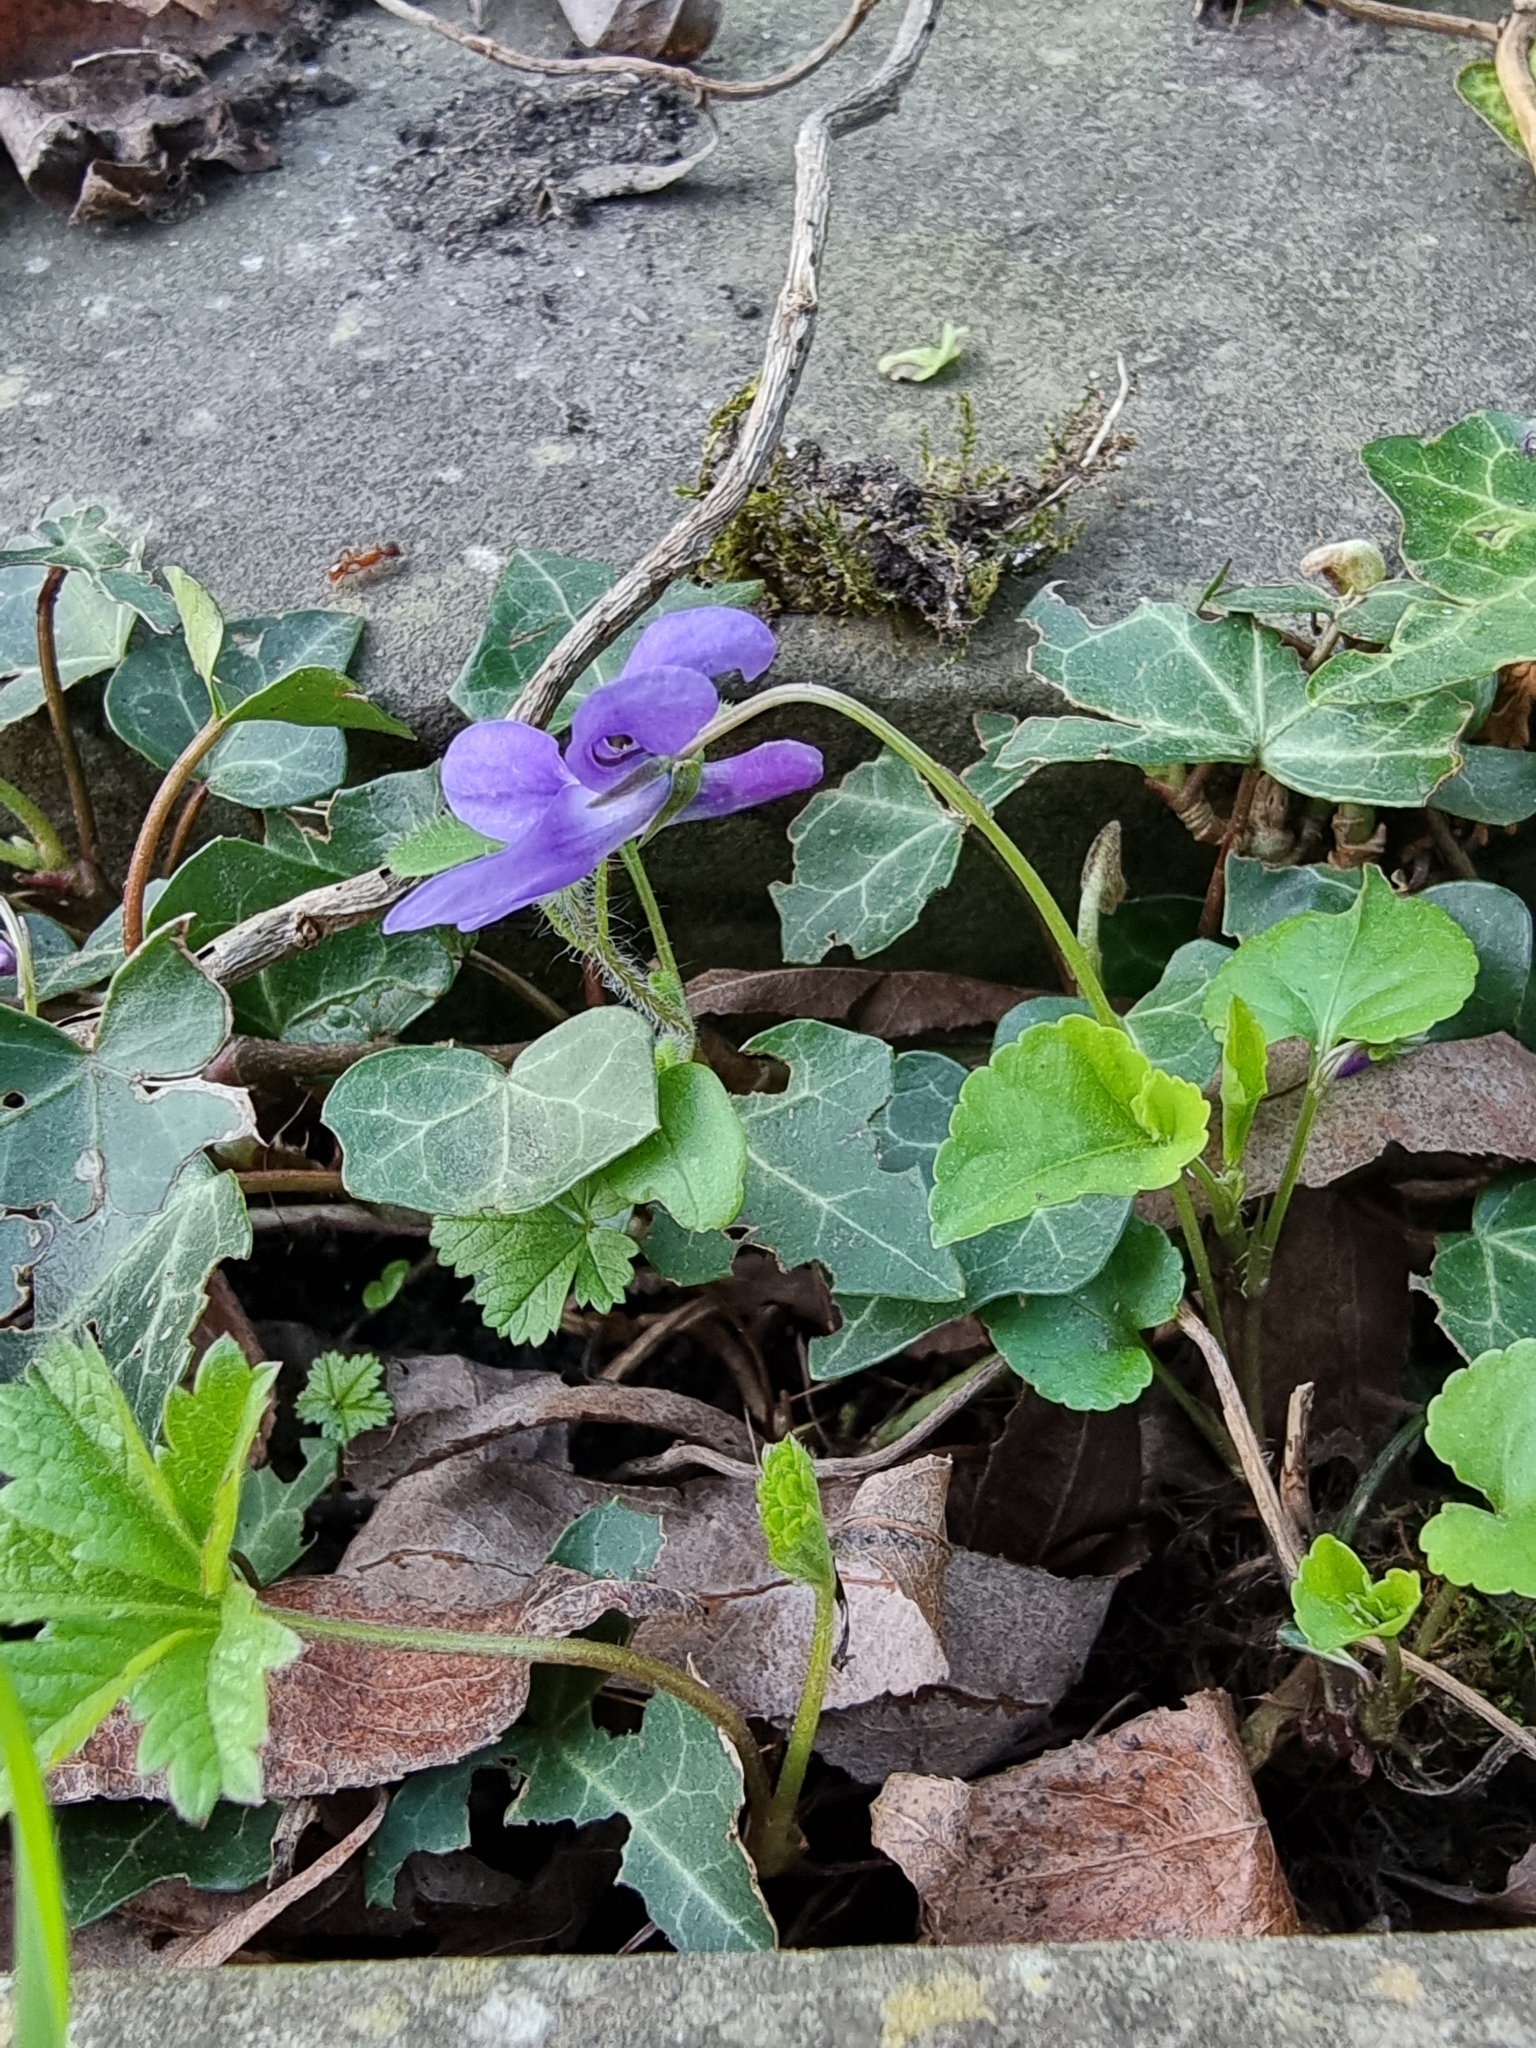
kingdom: Plantae
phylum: Tracheophyta
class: Magnoliopsida
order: Malpighiales
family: Violaceae
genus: Viola
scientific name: Viola reichenbachiana
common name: Early dog-violet
